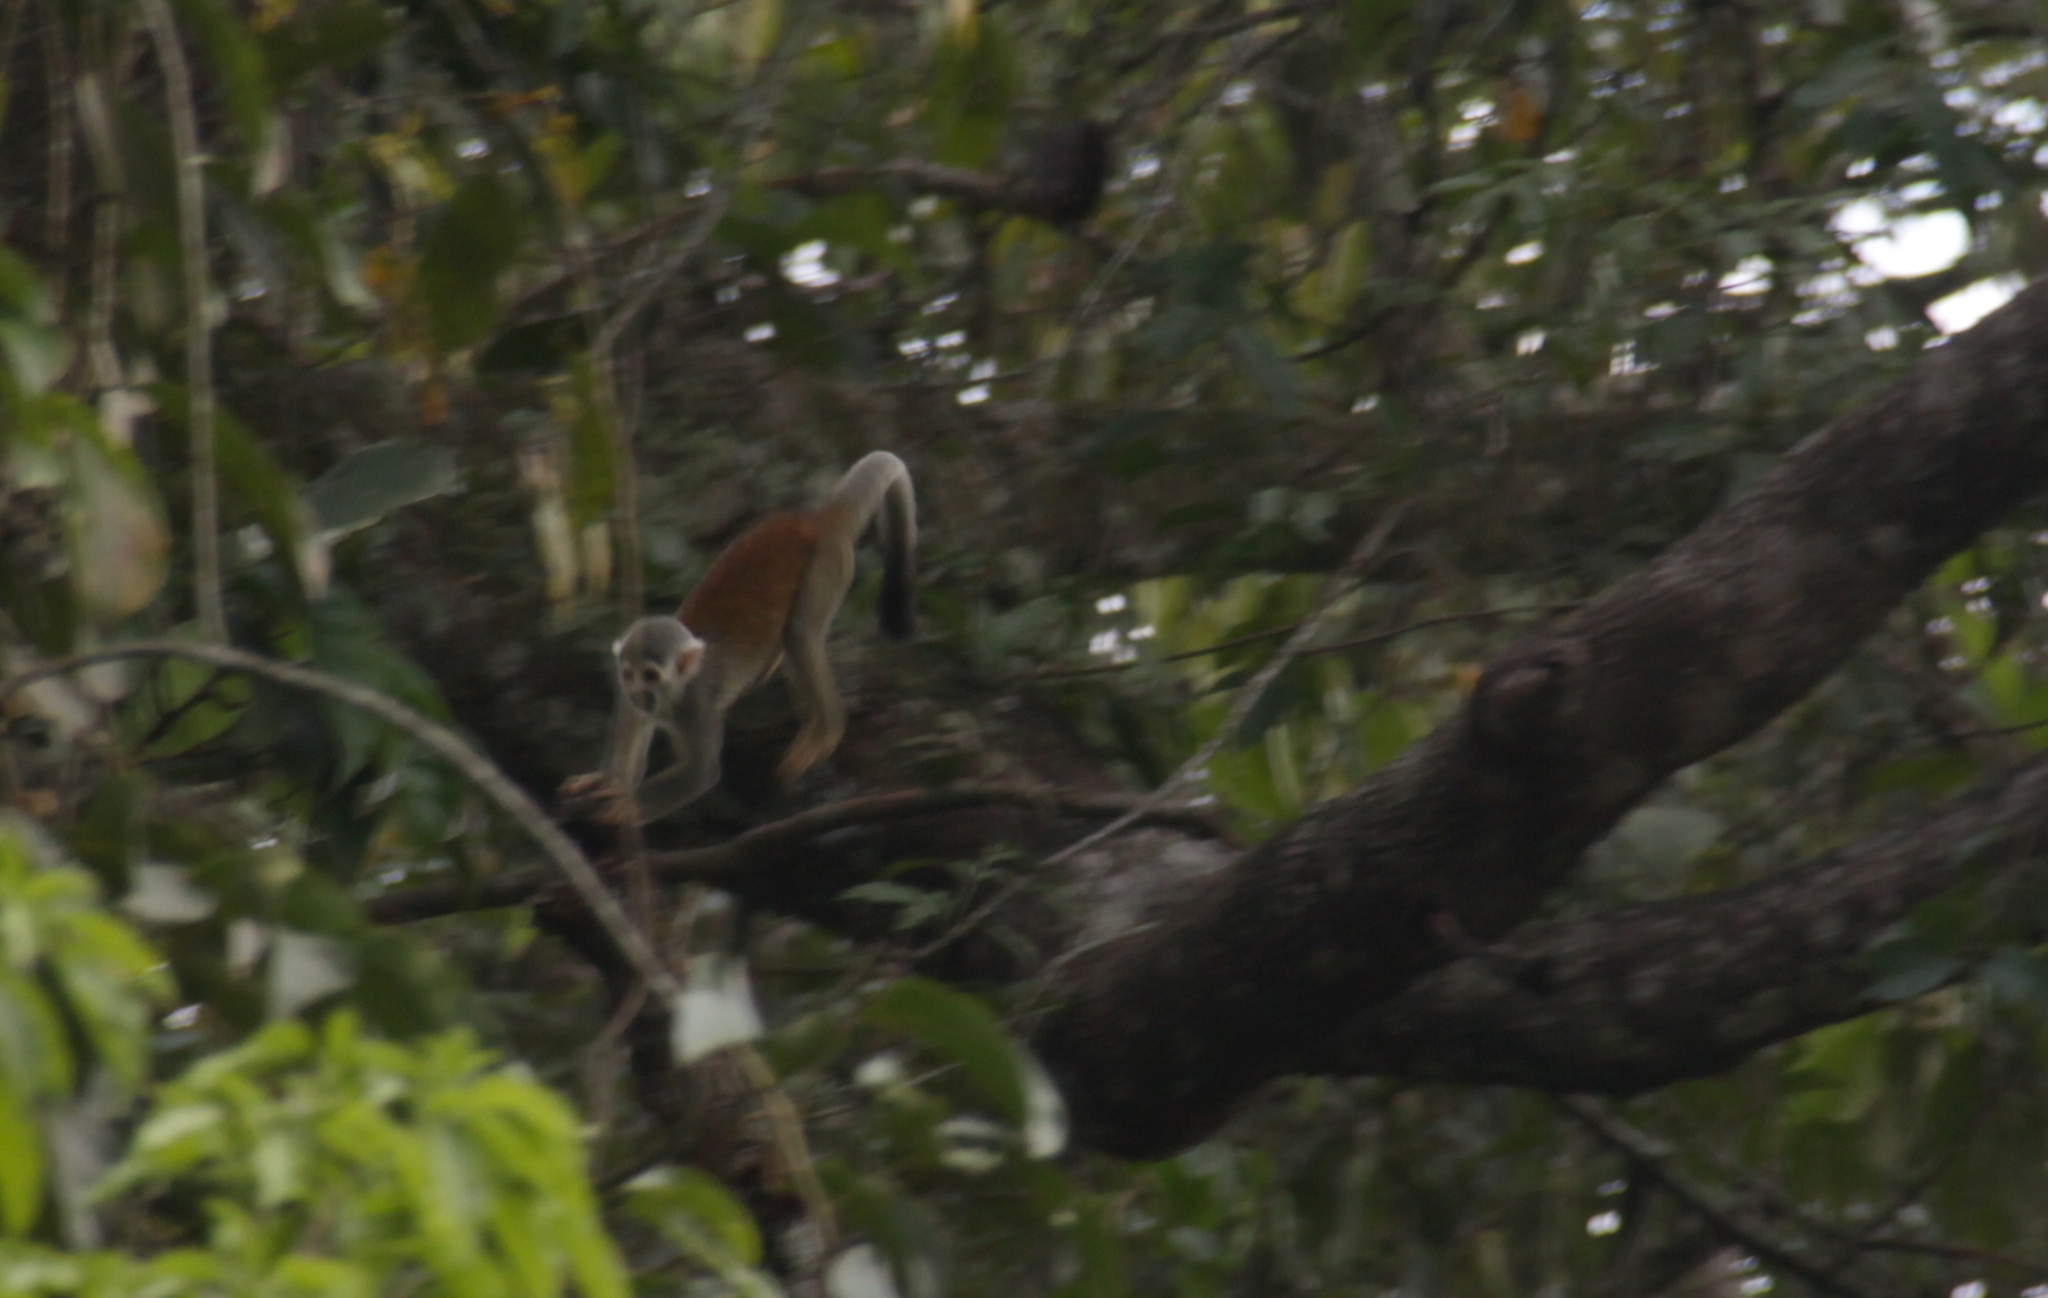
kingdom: Animalia
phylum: Chordata
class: Mammalia
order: Primates
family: Cebidae
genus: Saimiri
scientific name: Saimiri cassiquiarensis
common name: Humboldt’s squirrel monkey
